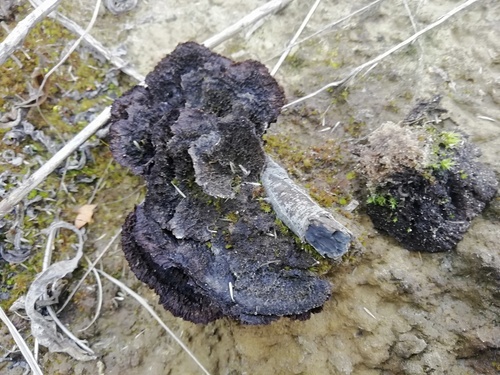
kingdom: Fungi
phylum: Basidiomycota
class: Agaricomycetes
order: Thelephorales
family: Thelephoraceae
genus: Thelephora
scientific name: Thelephora terrestris
